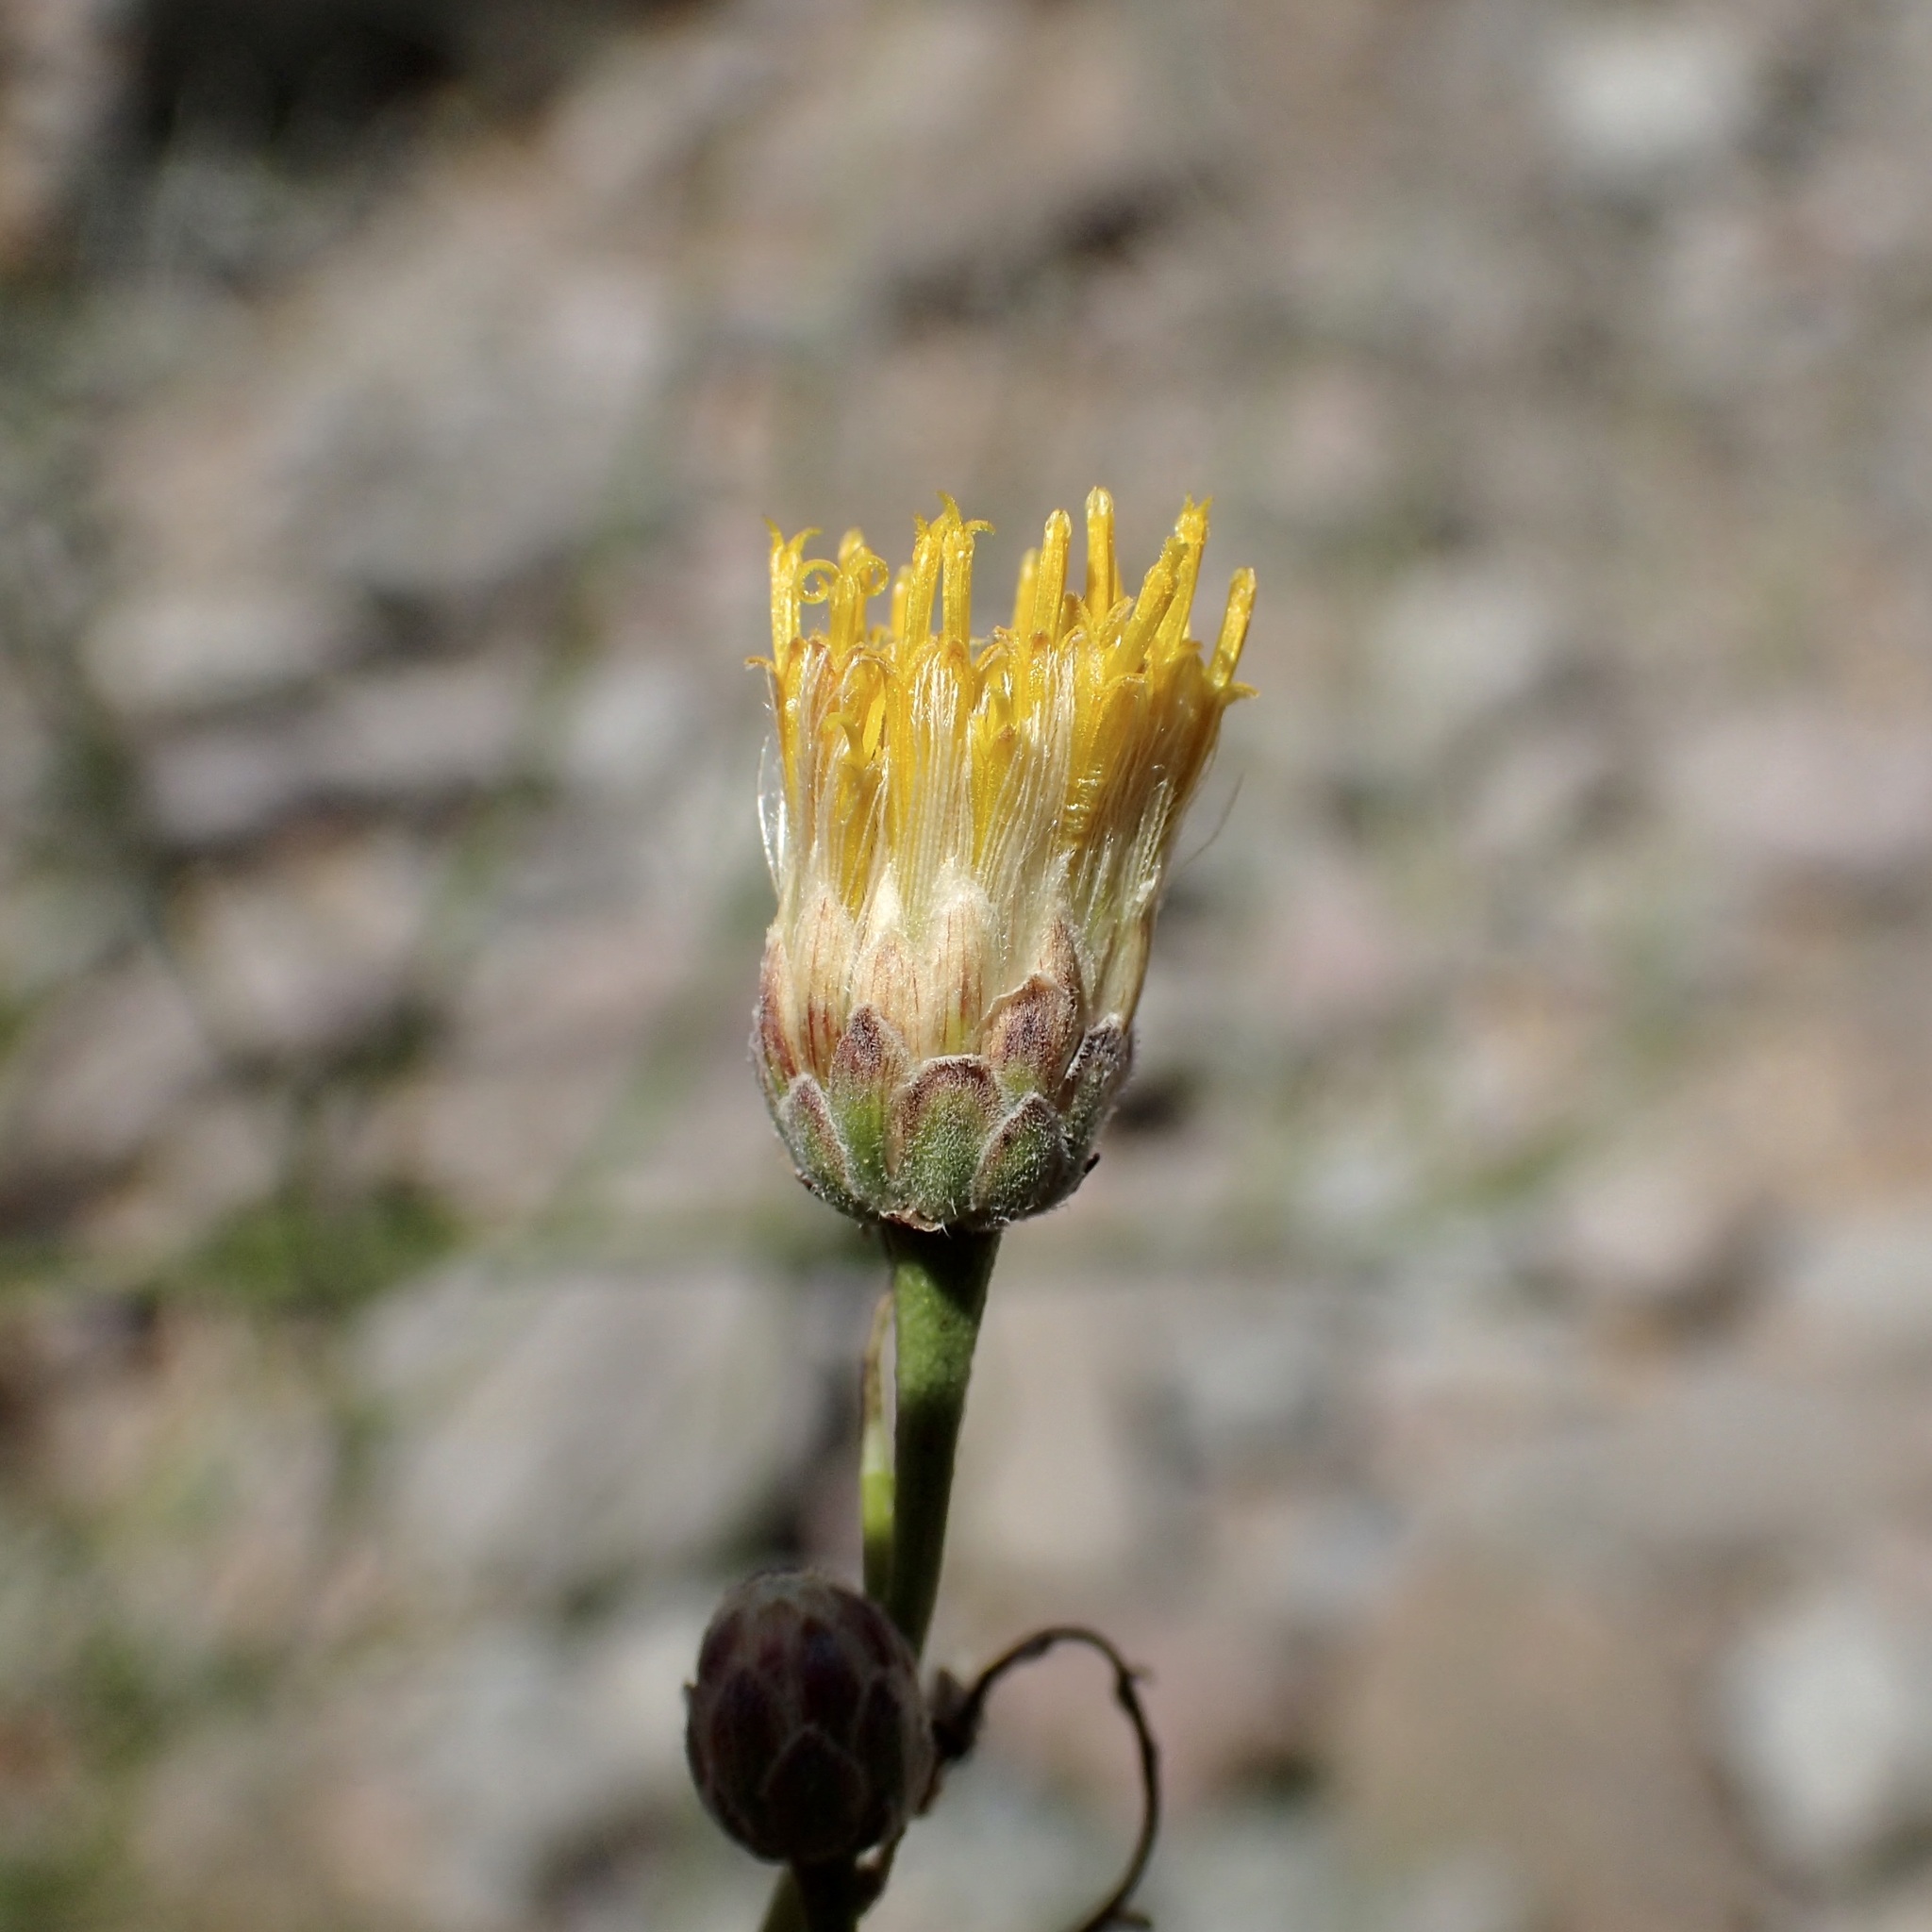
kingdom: Plantae
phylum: Tracheophyta
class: Magnoliopsida
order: Asterales
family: Asteraceae
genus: Bebbia
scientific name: Bebbia juncea
